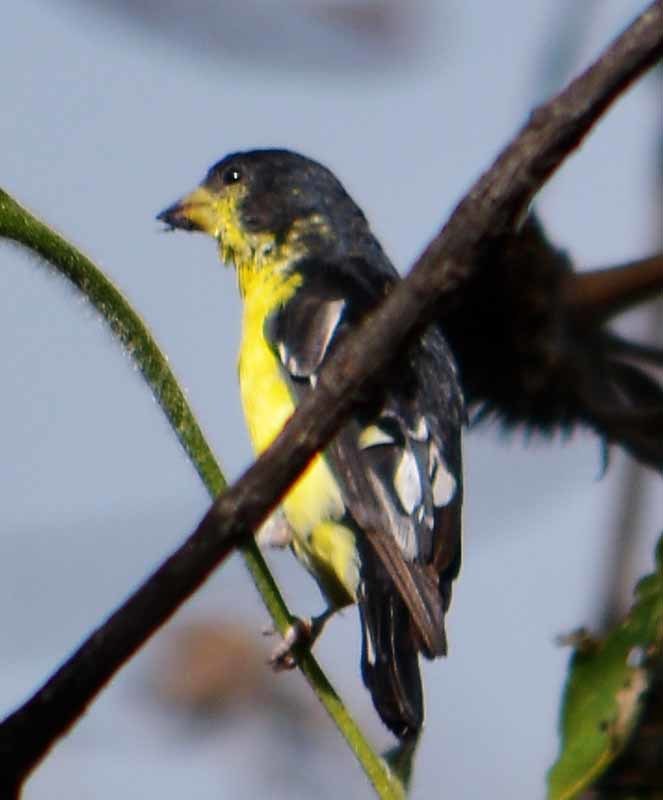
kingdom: Animalia
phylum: Chordata
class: Aves
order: Passeriformes
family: Fringillidae
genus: Spinus
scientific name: Spinus psaltria
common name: Lesser goldfinch
